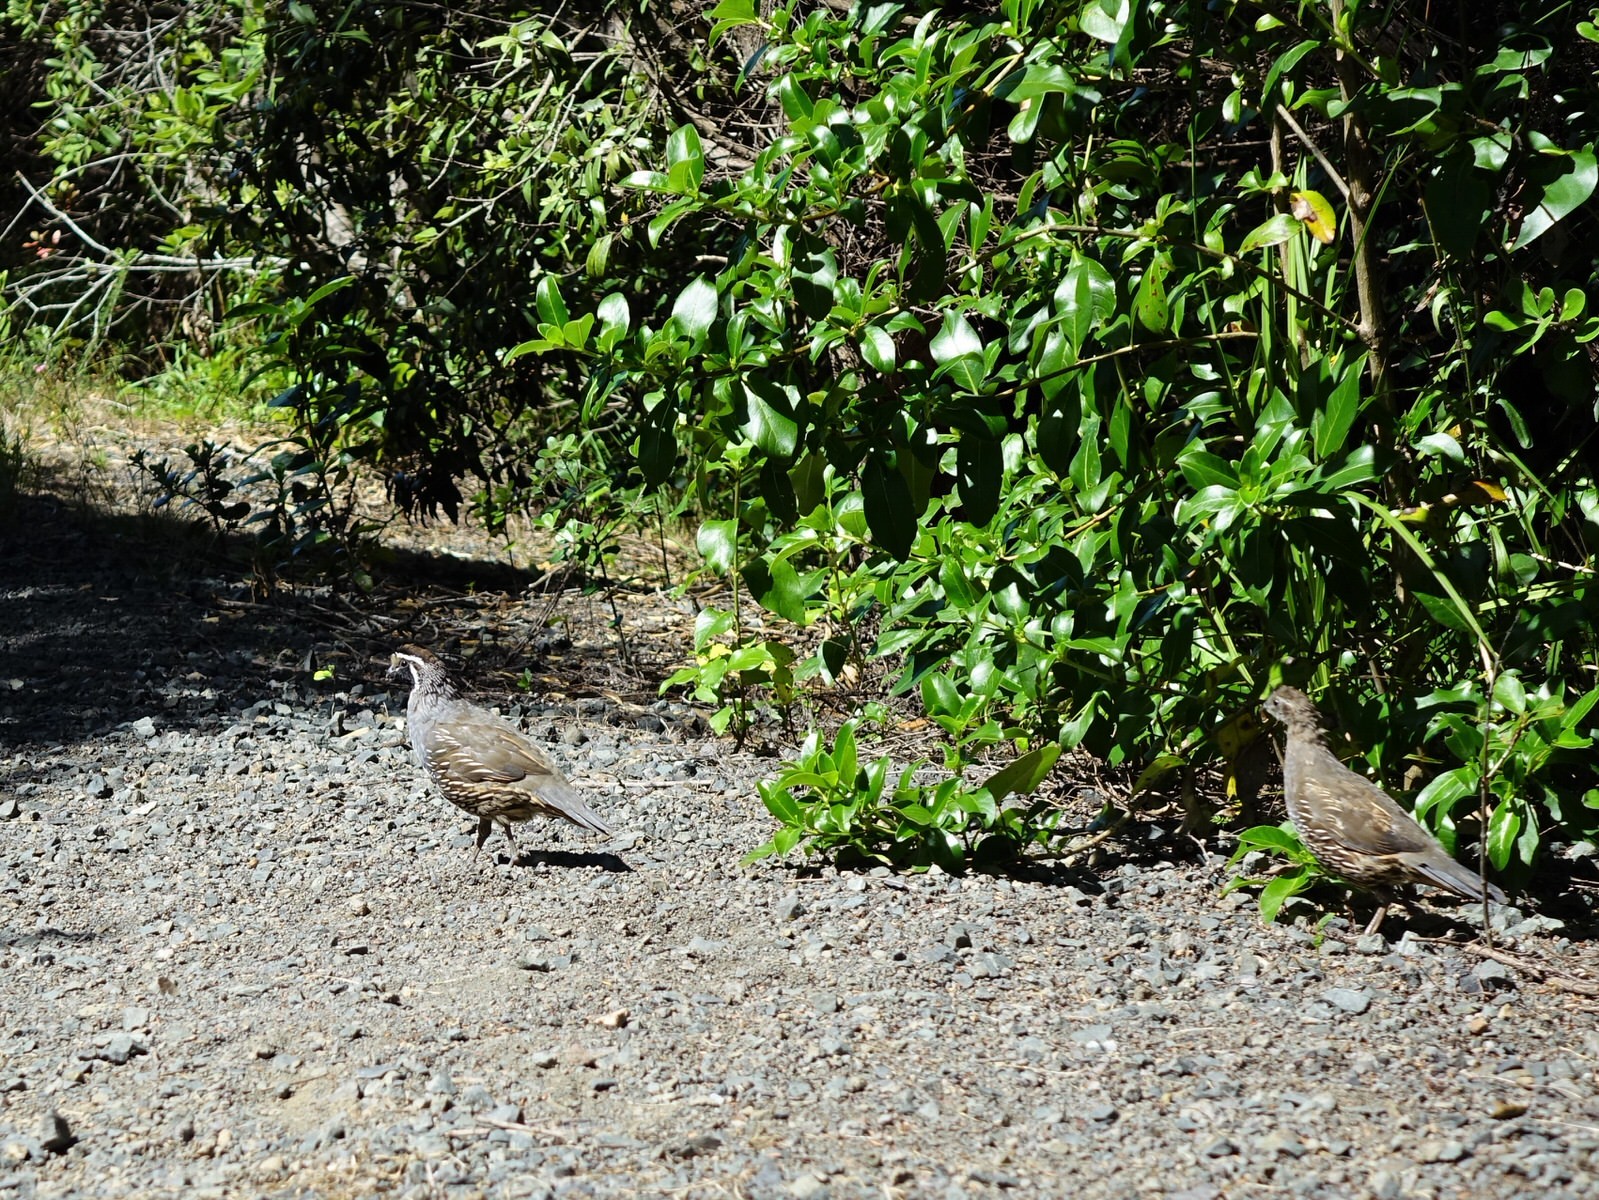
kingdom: Animalia
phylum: Chordata
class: Aves
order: Galliformes
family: Odontophoridae
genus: Callipepla
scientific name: Callipepla californica
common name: California quail
